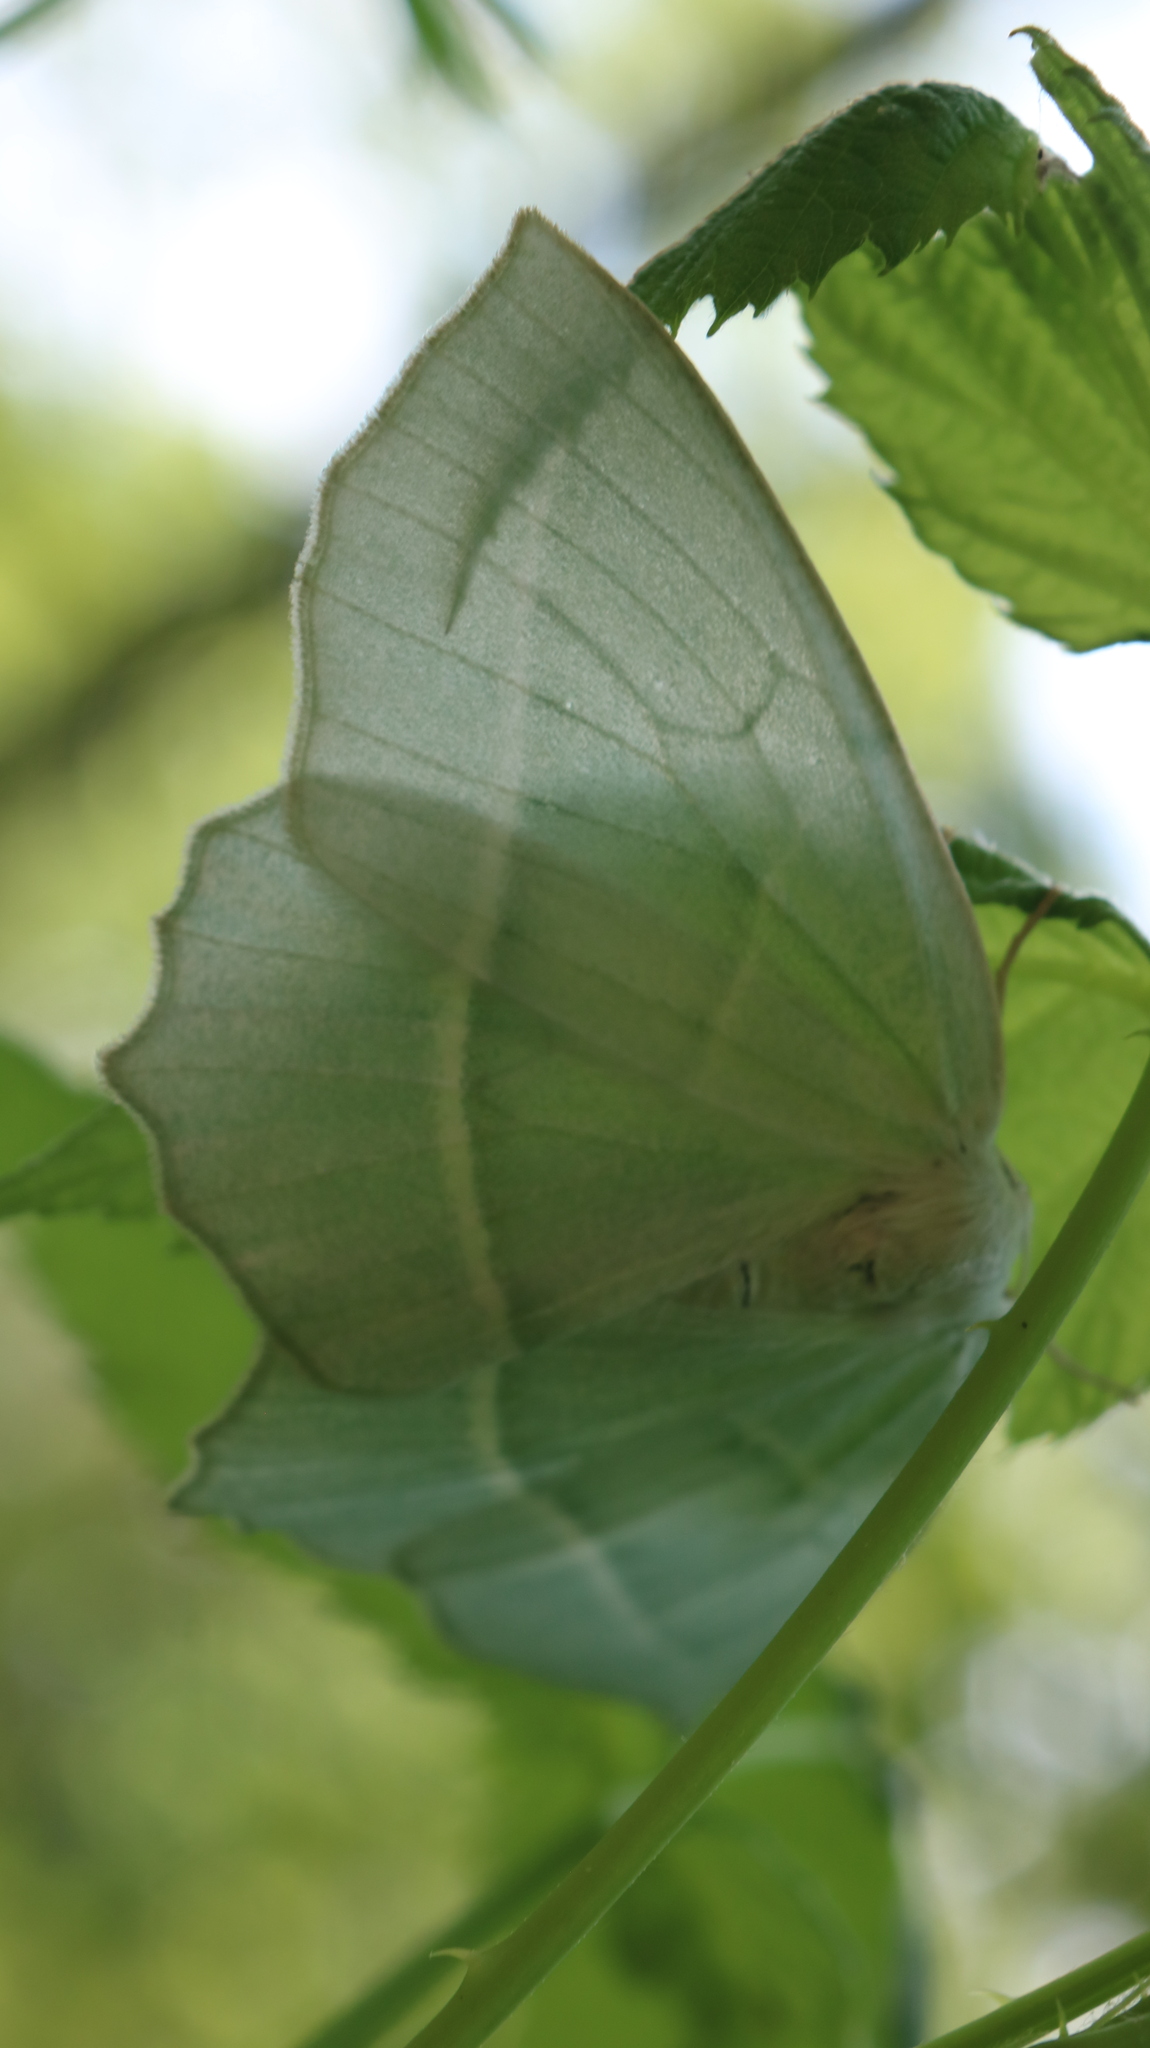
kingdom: Animalia
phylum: Arthropoda
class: Insecta
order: Lepidoptera
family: Geometridae
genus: Campaea
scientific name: Campaea perlata
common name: Fringed looper
